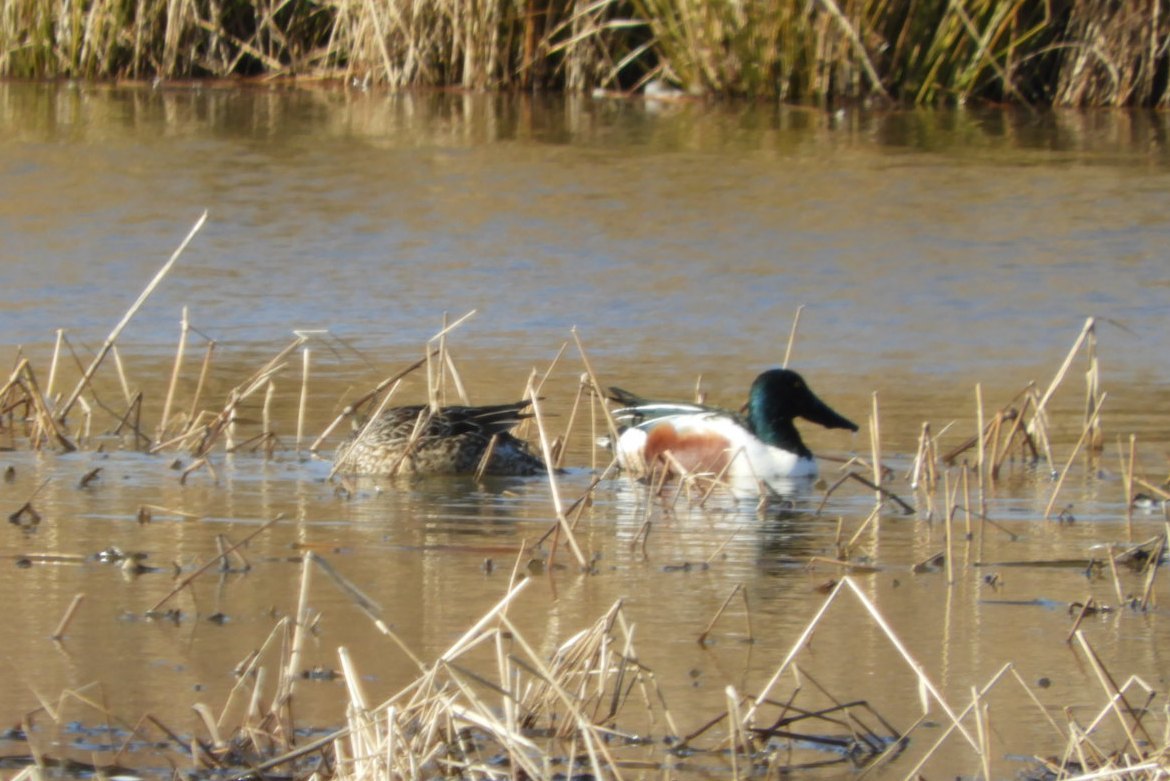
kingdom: Animalia
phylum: Chordata
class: Aves
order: Anseriformes
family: Anatidae
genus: Spatula
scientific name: Spatula clypeata
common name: Northern shoveler
